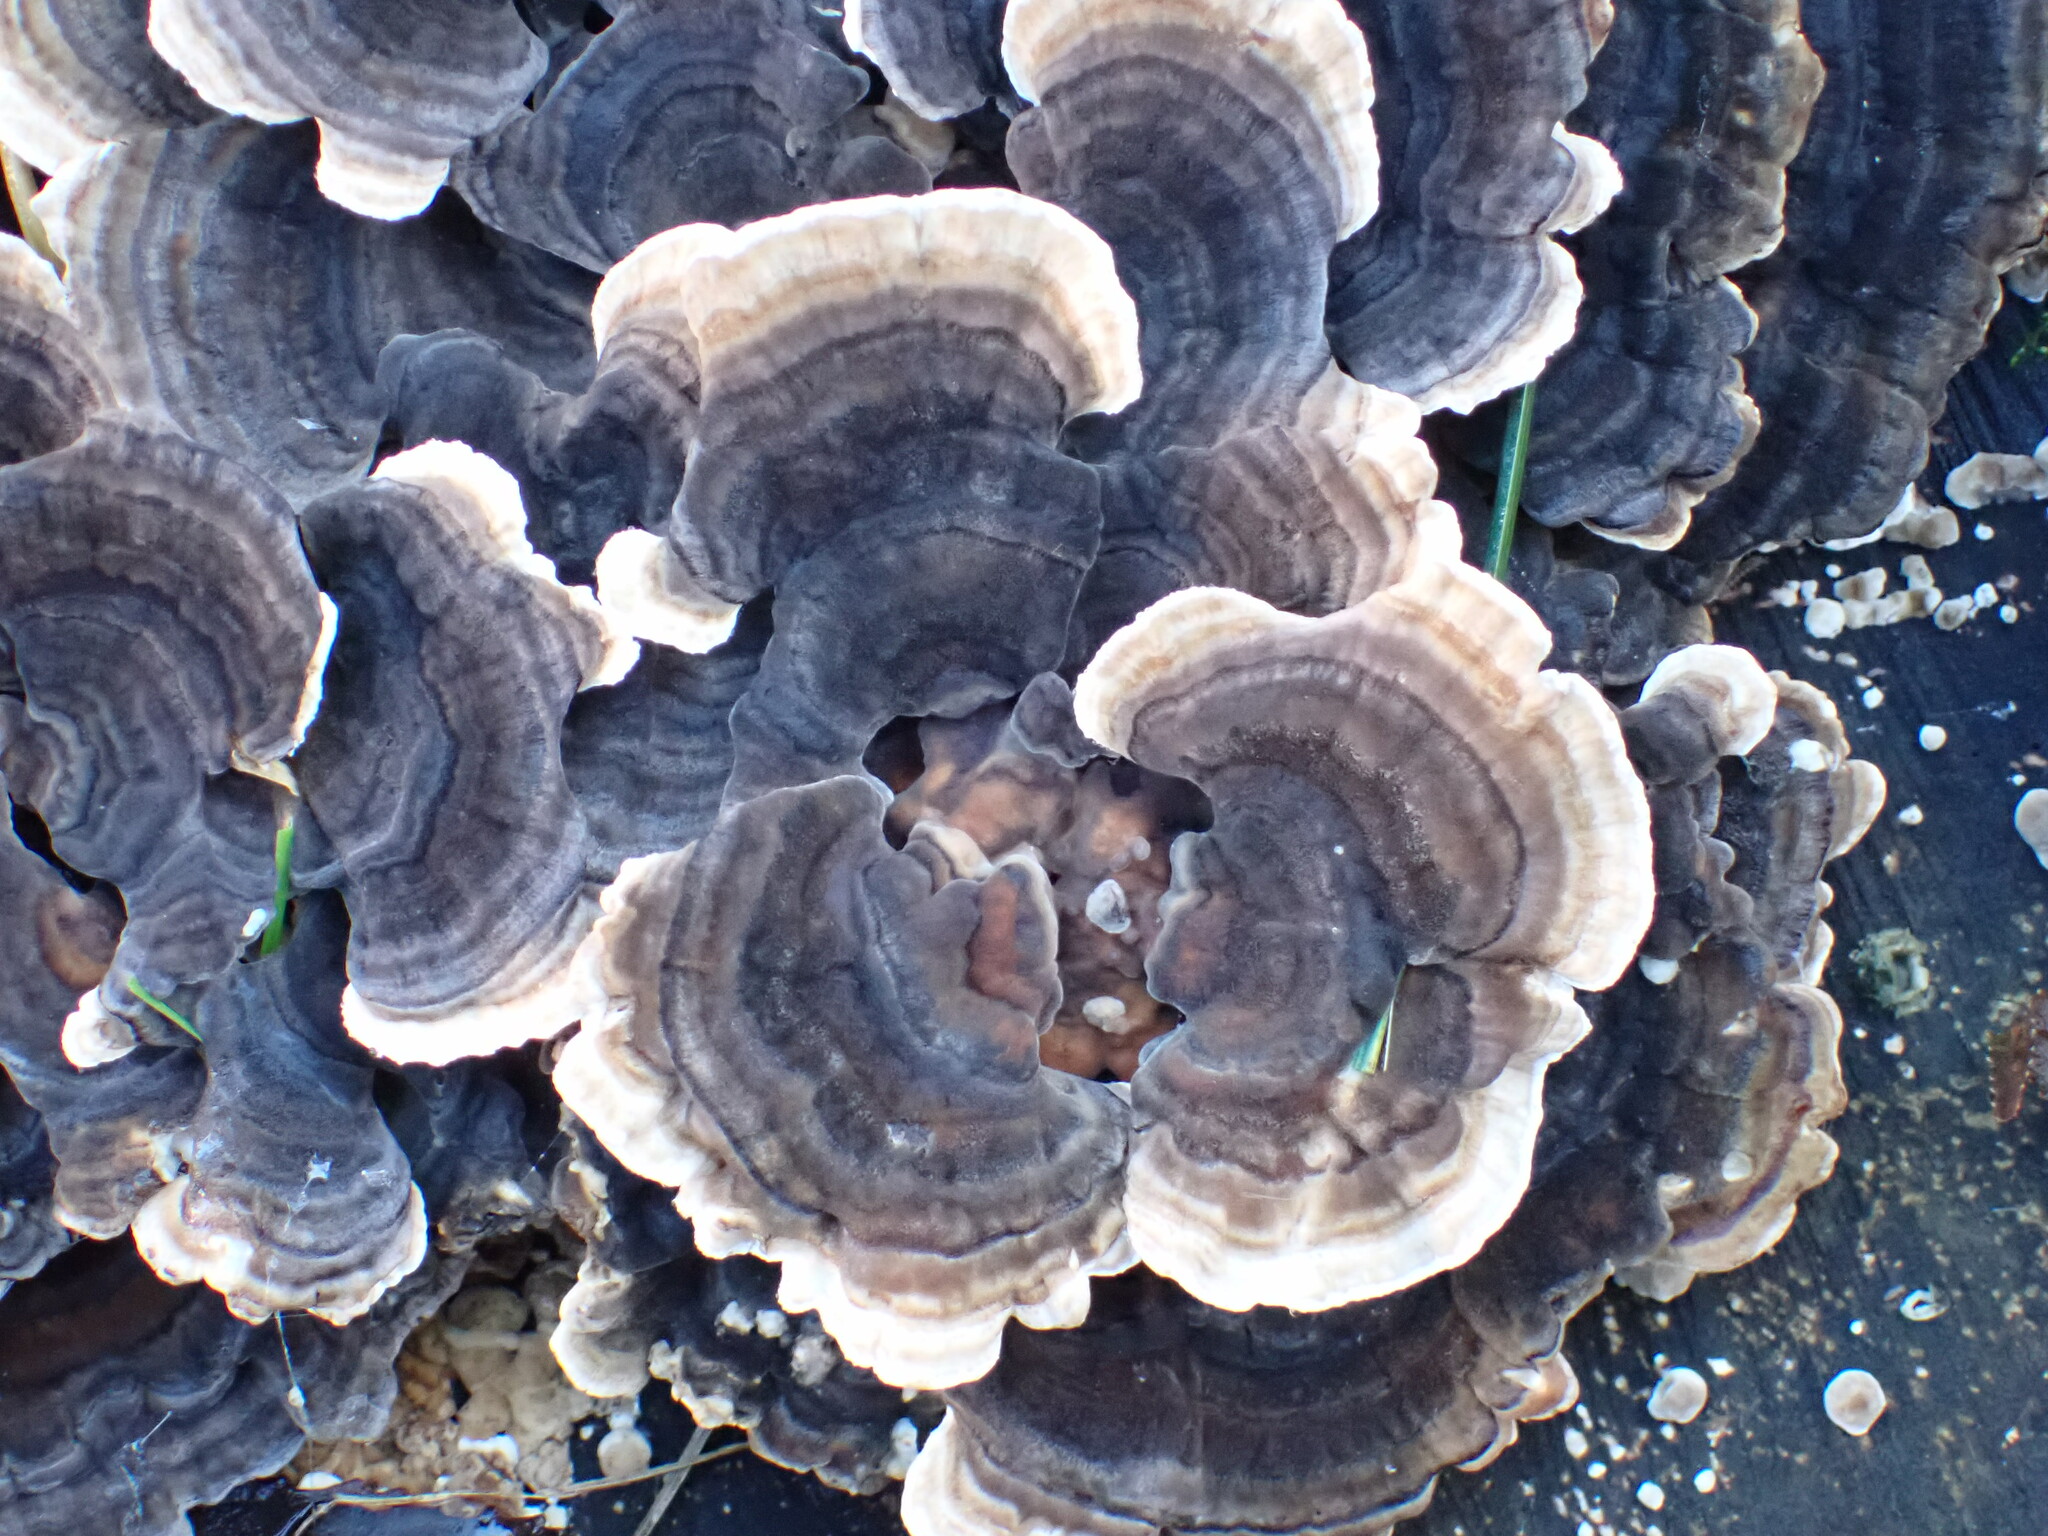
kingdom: Fungi
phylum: Basidiomycota
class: Agaricomycetes
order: Polyporales
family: Polyporaceae
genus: Trametes
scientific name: Trametes versicolor
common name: Turkeytail
